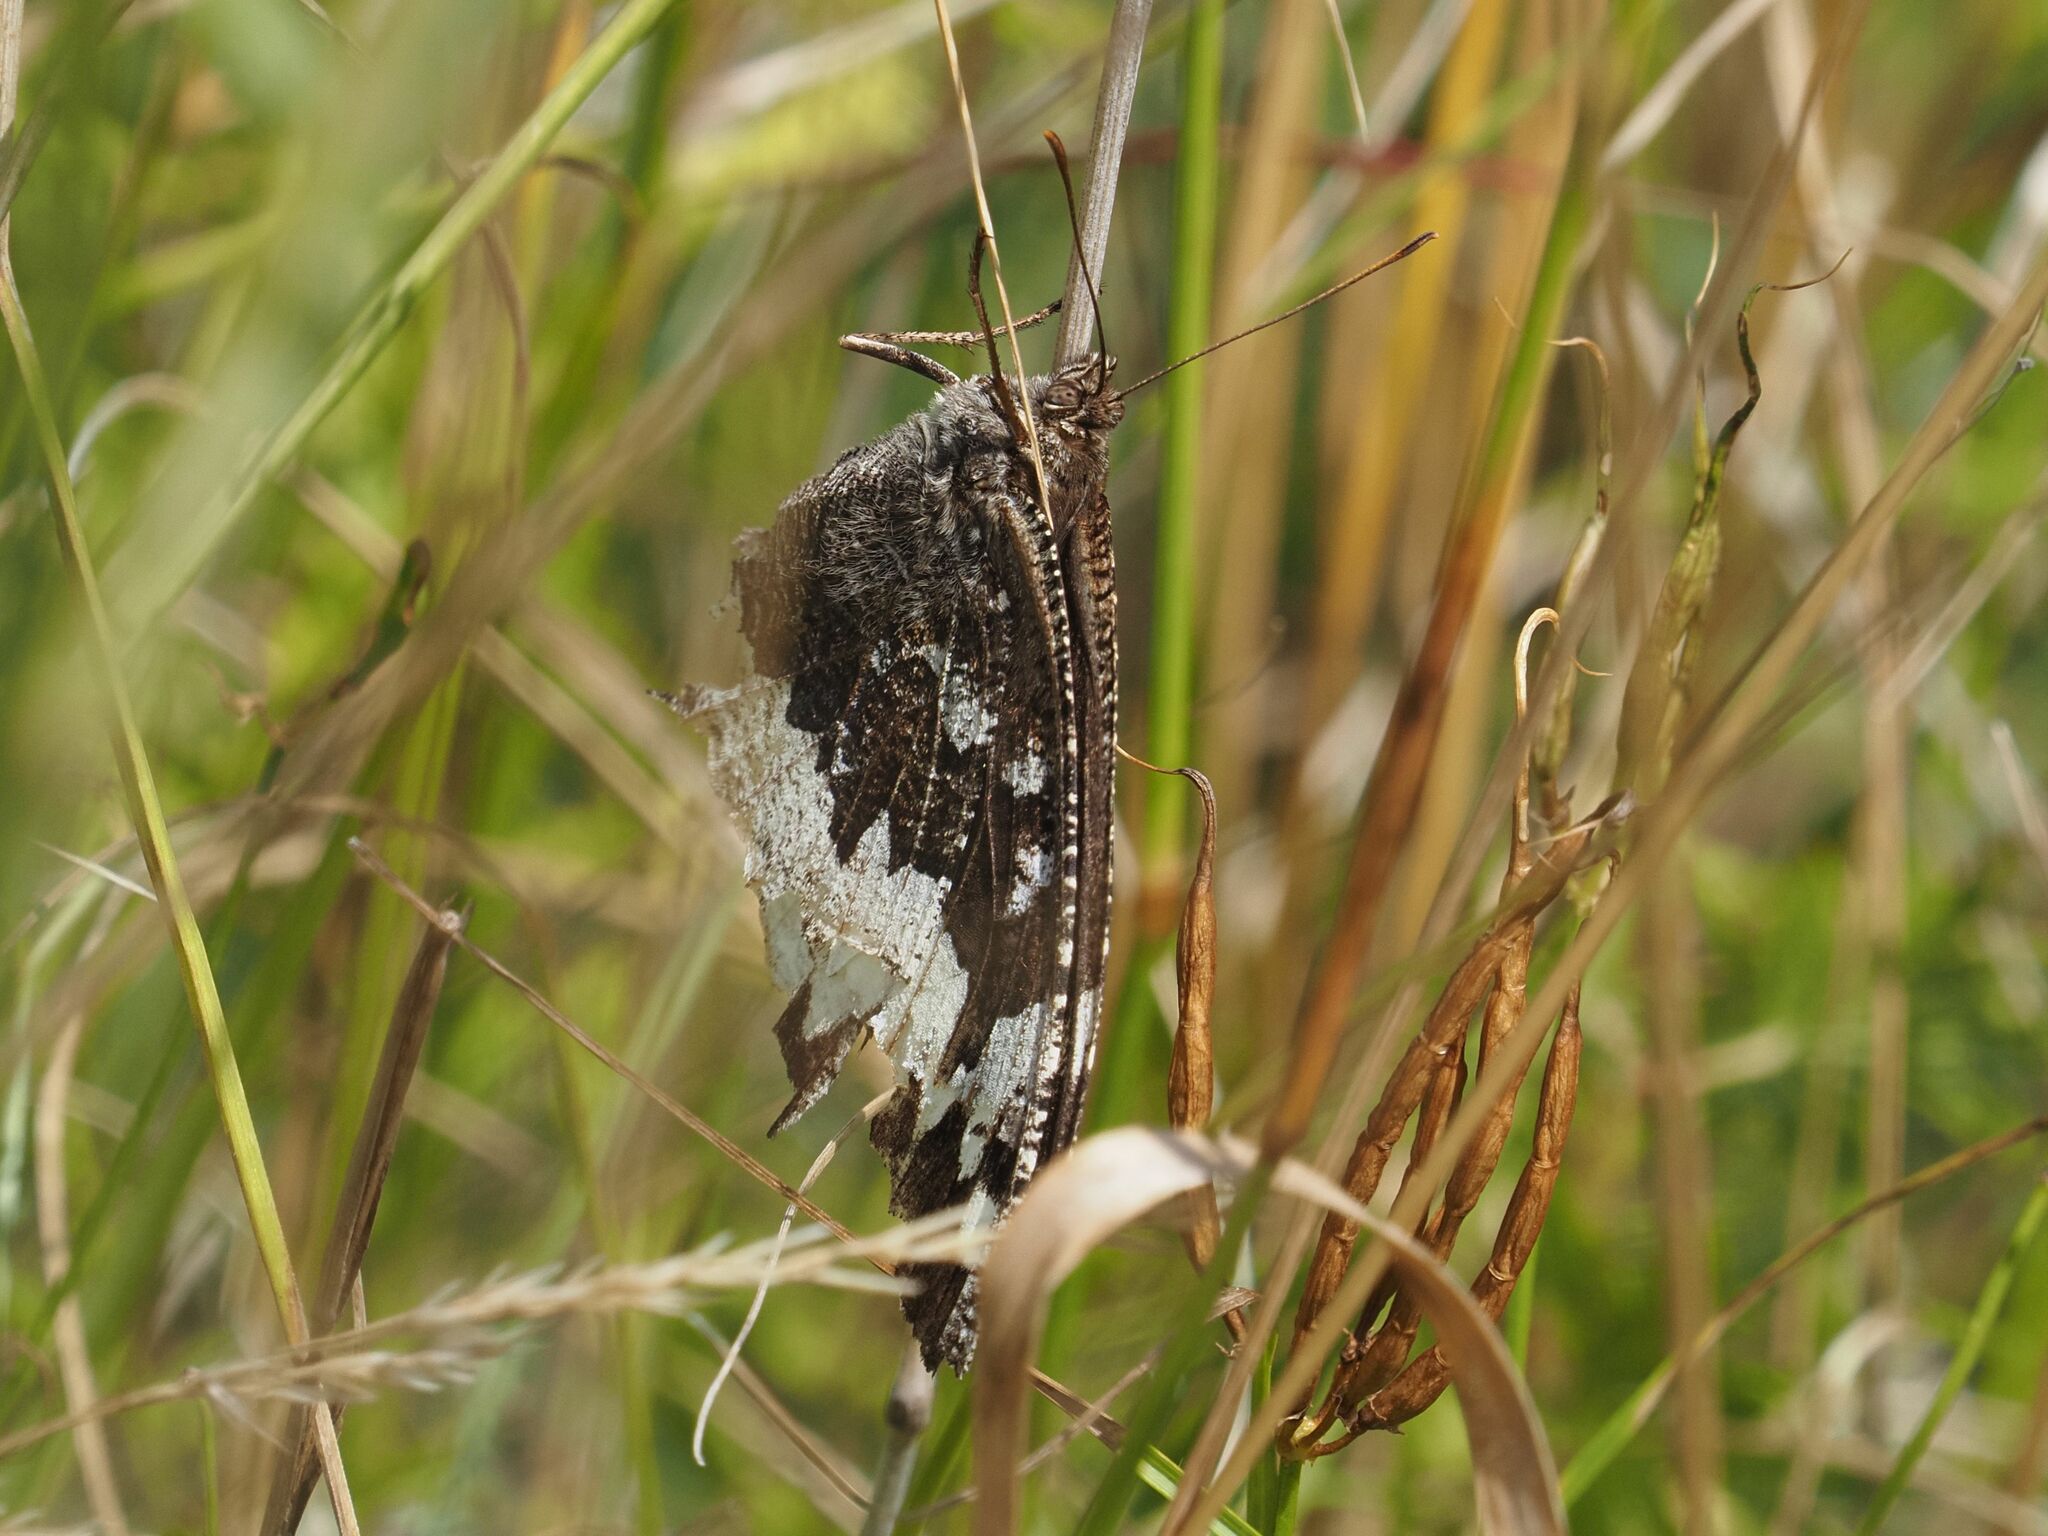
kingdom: Animalia
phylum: Arthropoda
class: Insecta
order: Lepidoptera
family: Lycaenidae
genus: Loweia
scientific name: Loweia tityrus
